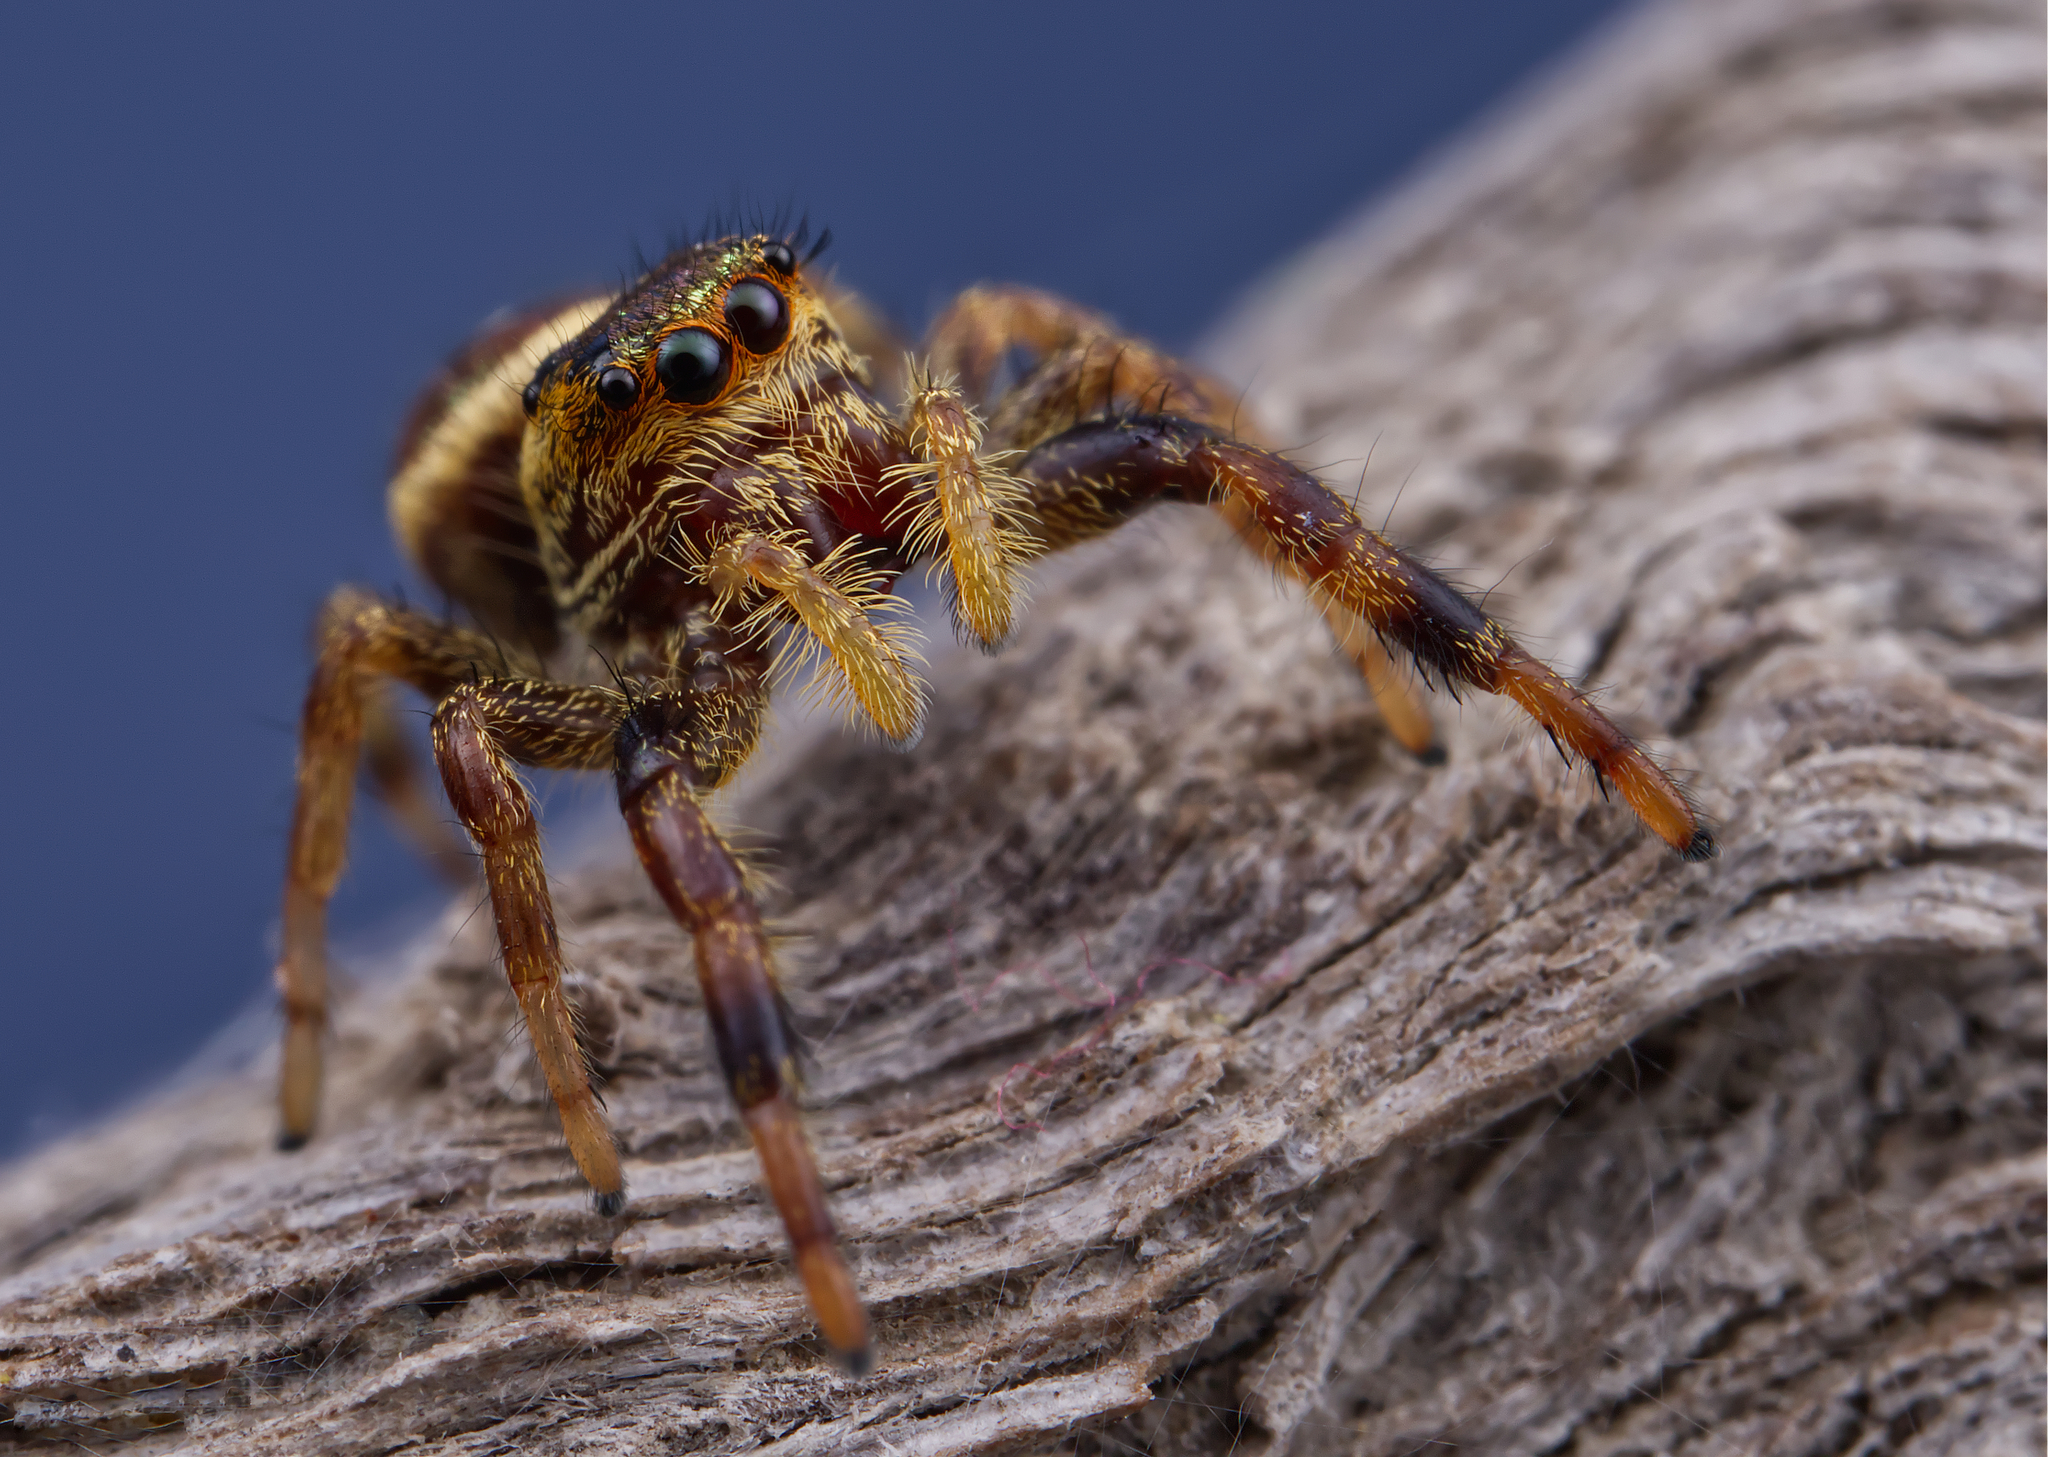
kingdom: Animalia
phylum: Arthropoda
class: Arachnida
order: Araneae
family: Salticidae
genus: Paraphidippus
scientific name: Paraphidippus aurantius
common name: Jumping spiders
